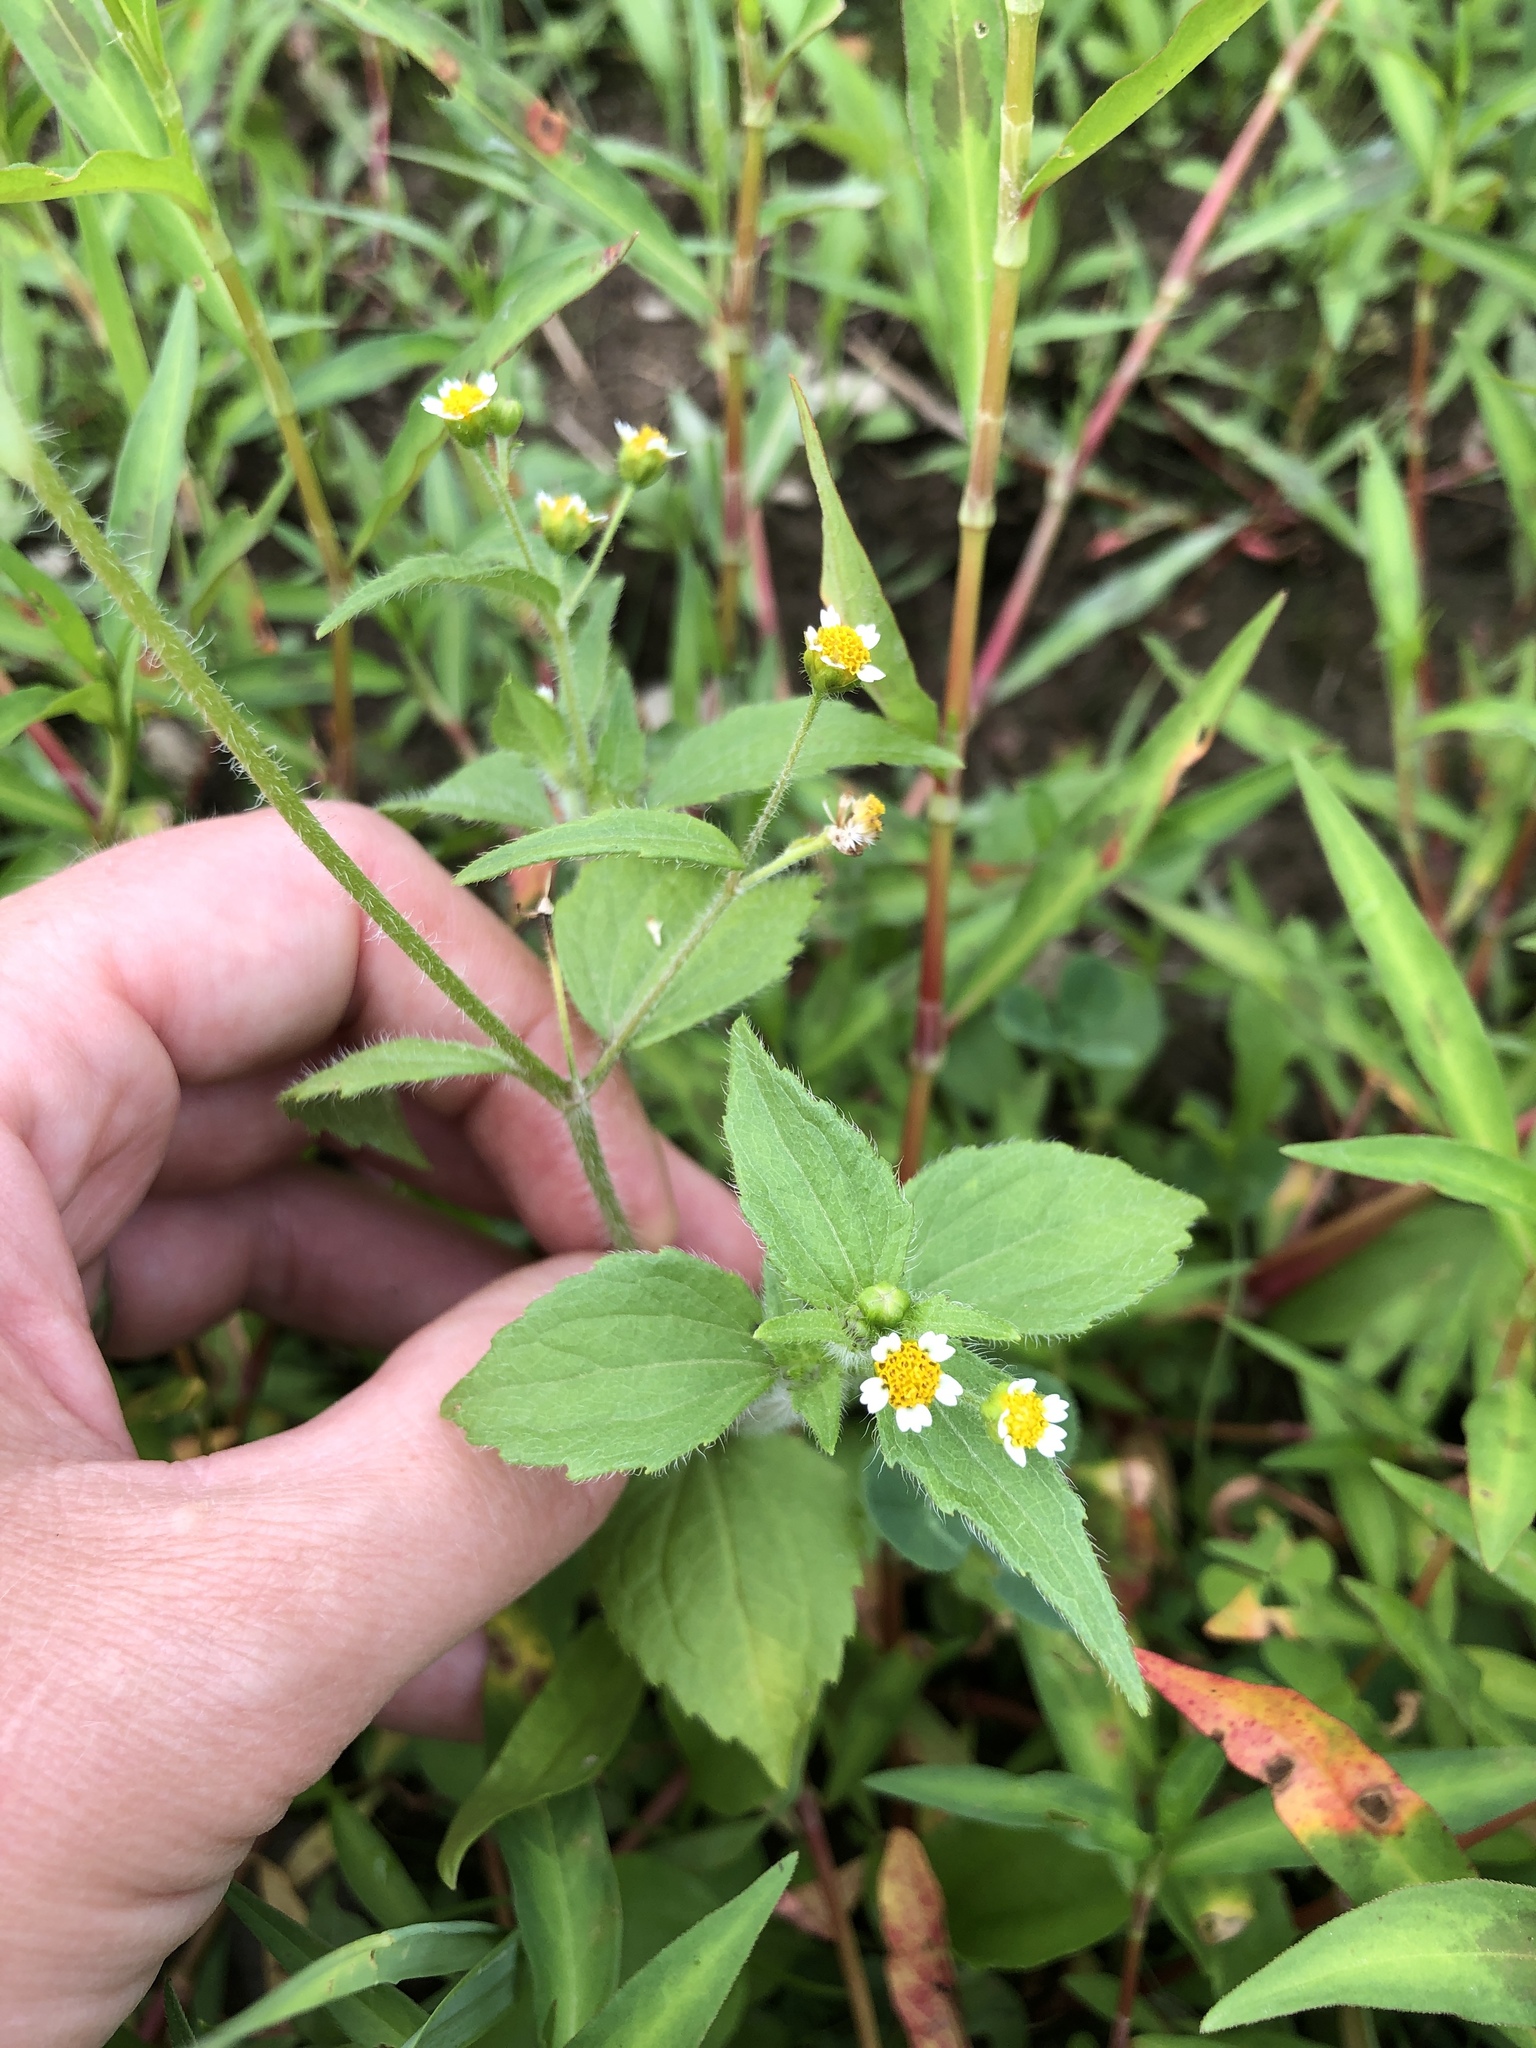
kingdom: Plantae
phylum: Tracheophyta
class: Magnoliopsida
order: Asterales
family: Asteraceae
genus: Galinsoga
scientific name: Galinsoga quadriradiata
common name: Shaggy soldier
